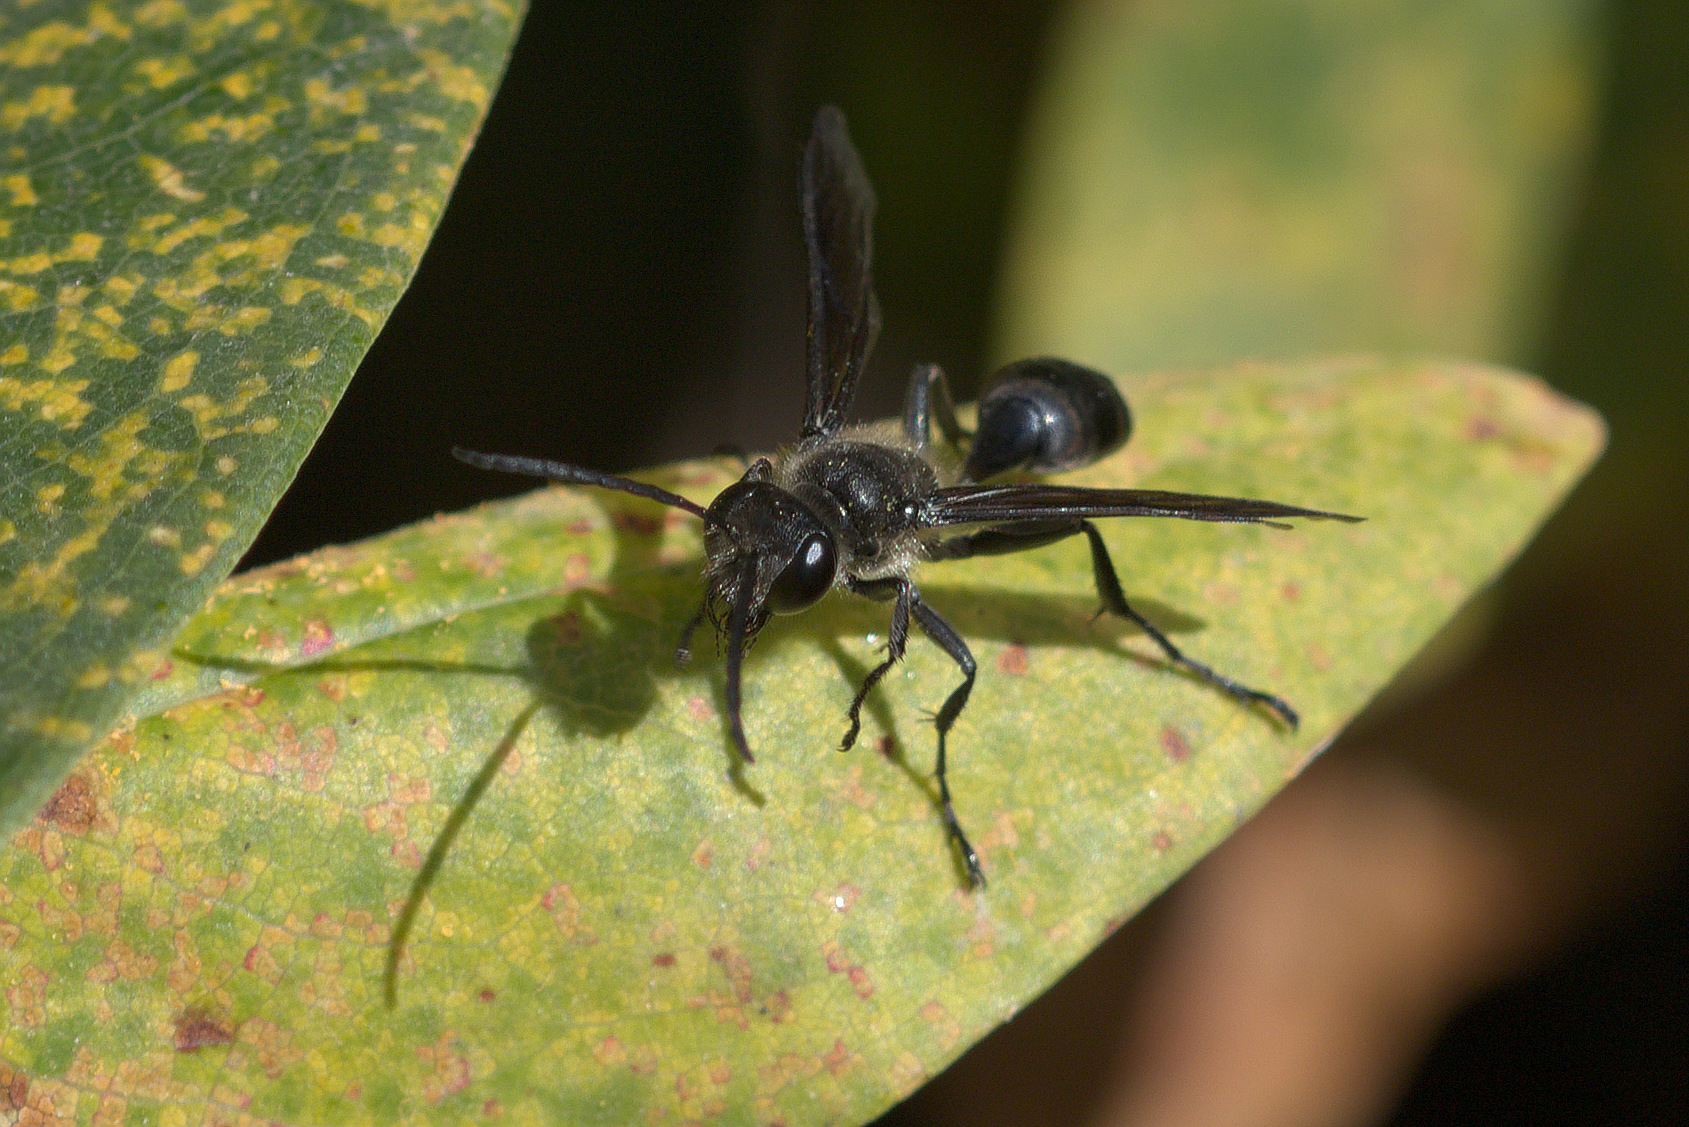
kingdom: Animalia
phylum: Arthropoda
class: Insecta
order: Hymenoptera
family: Sphecidae
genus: Isodontia
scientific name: Isodontia mexicana
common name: Mud dauber
